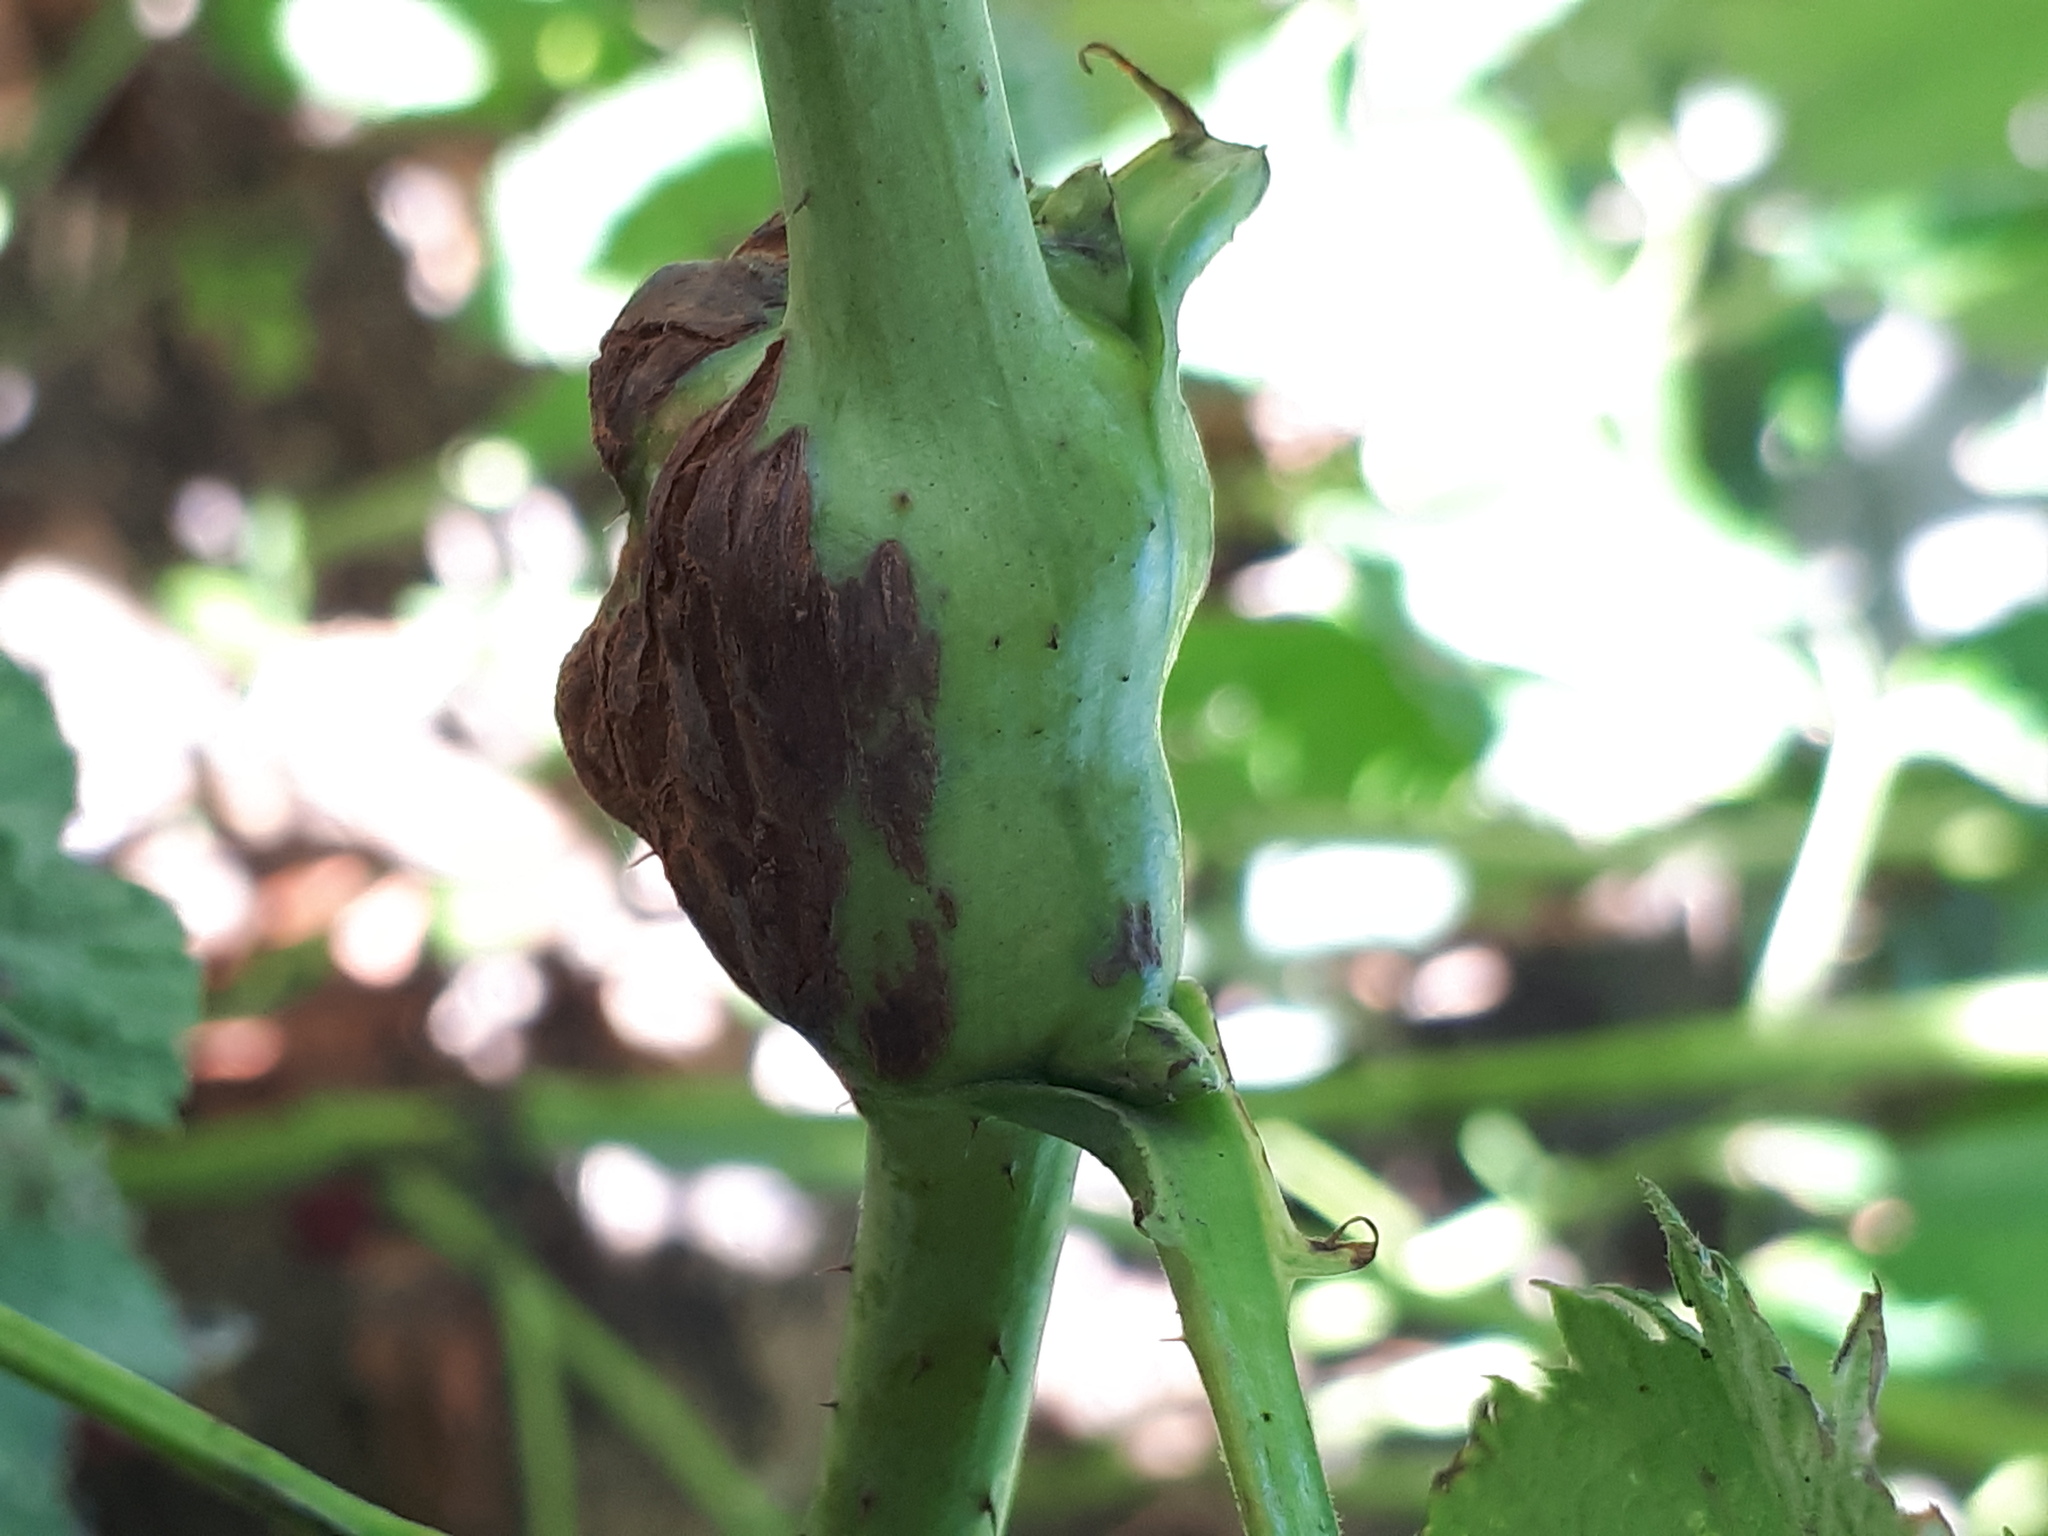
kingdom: Animalia
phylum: Arthropoda
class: Insecta
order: Diptera
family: Cecidomyiidae
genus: Lasioptera
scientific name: Lasioptera rubi
